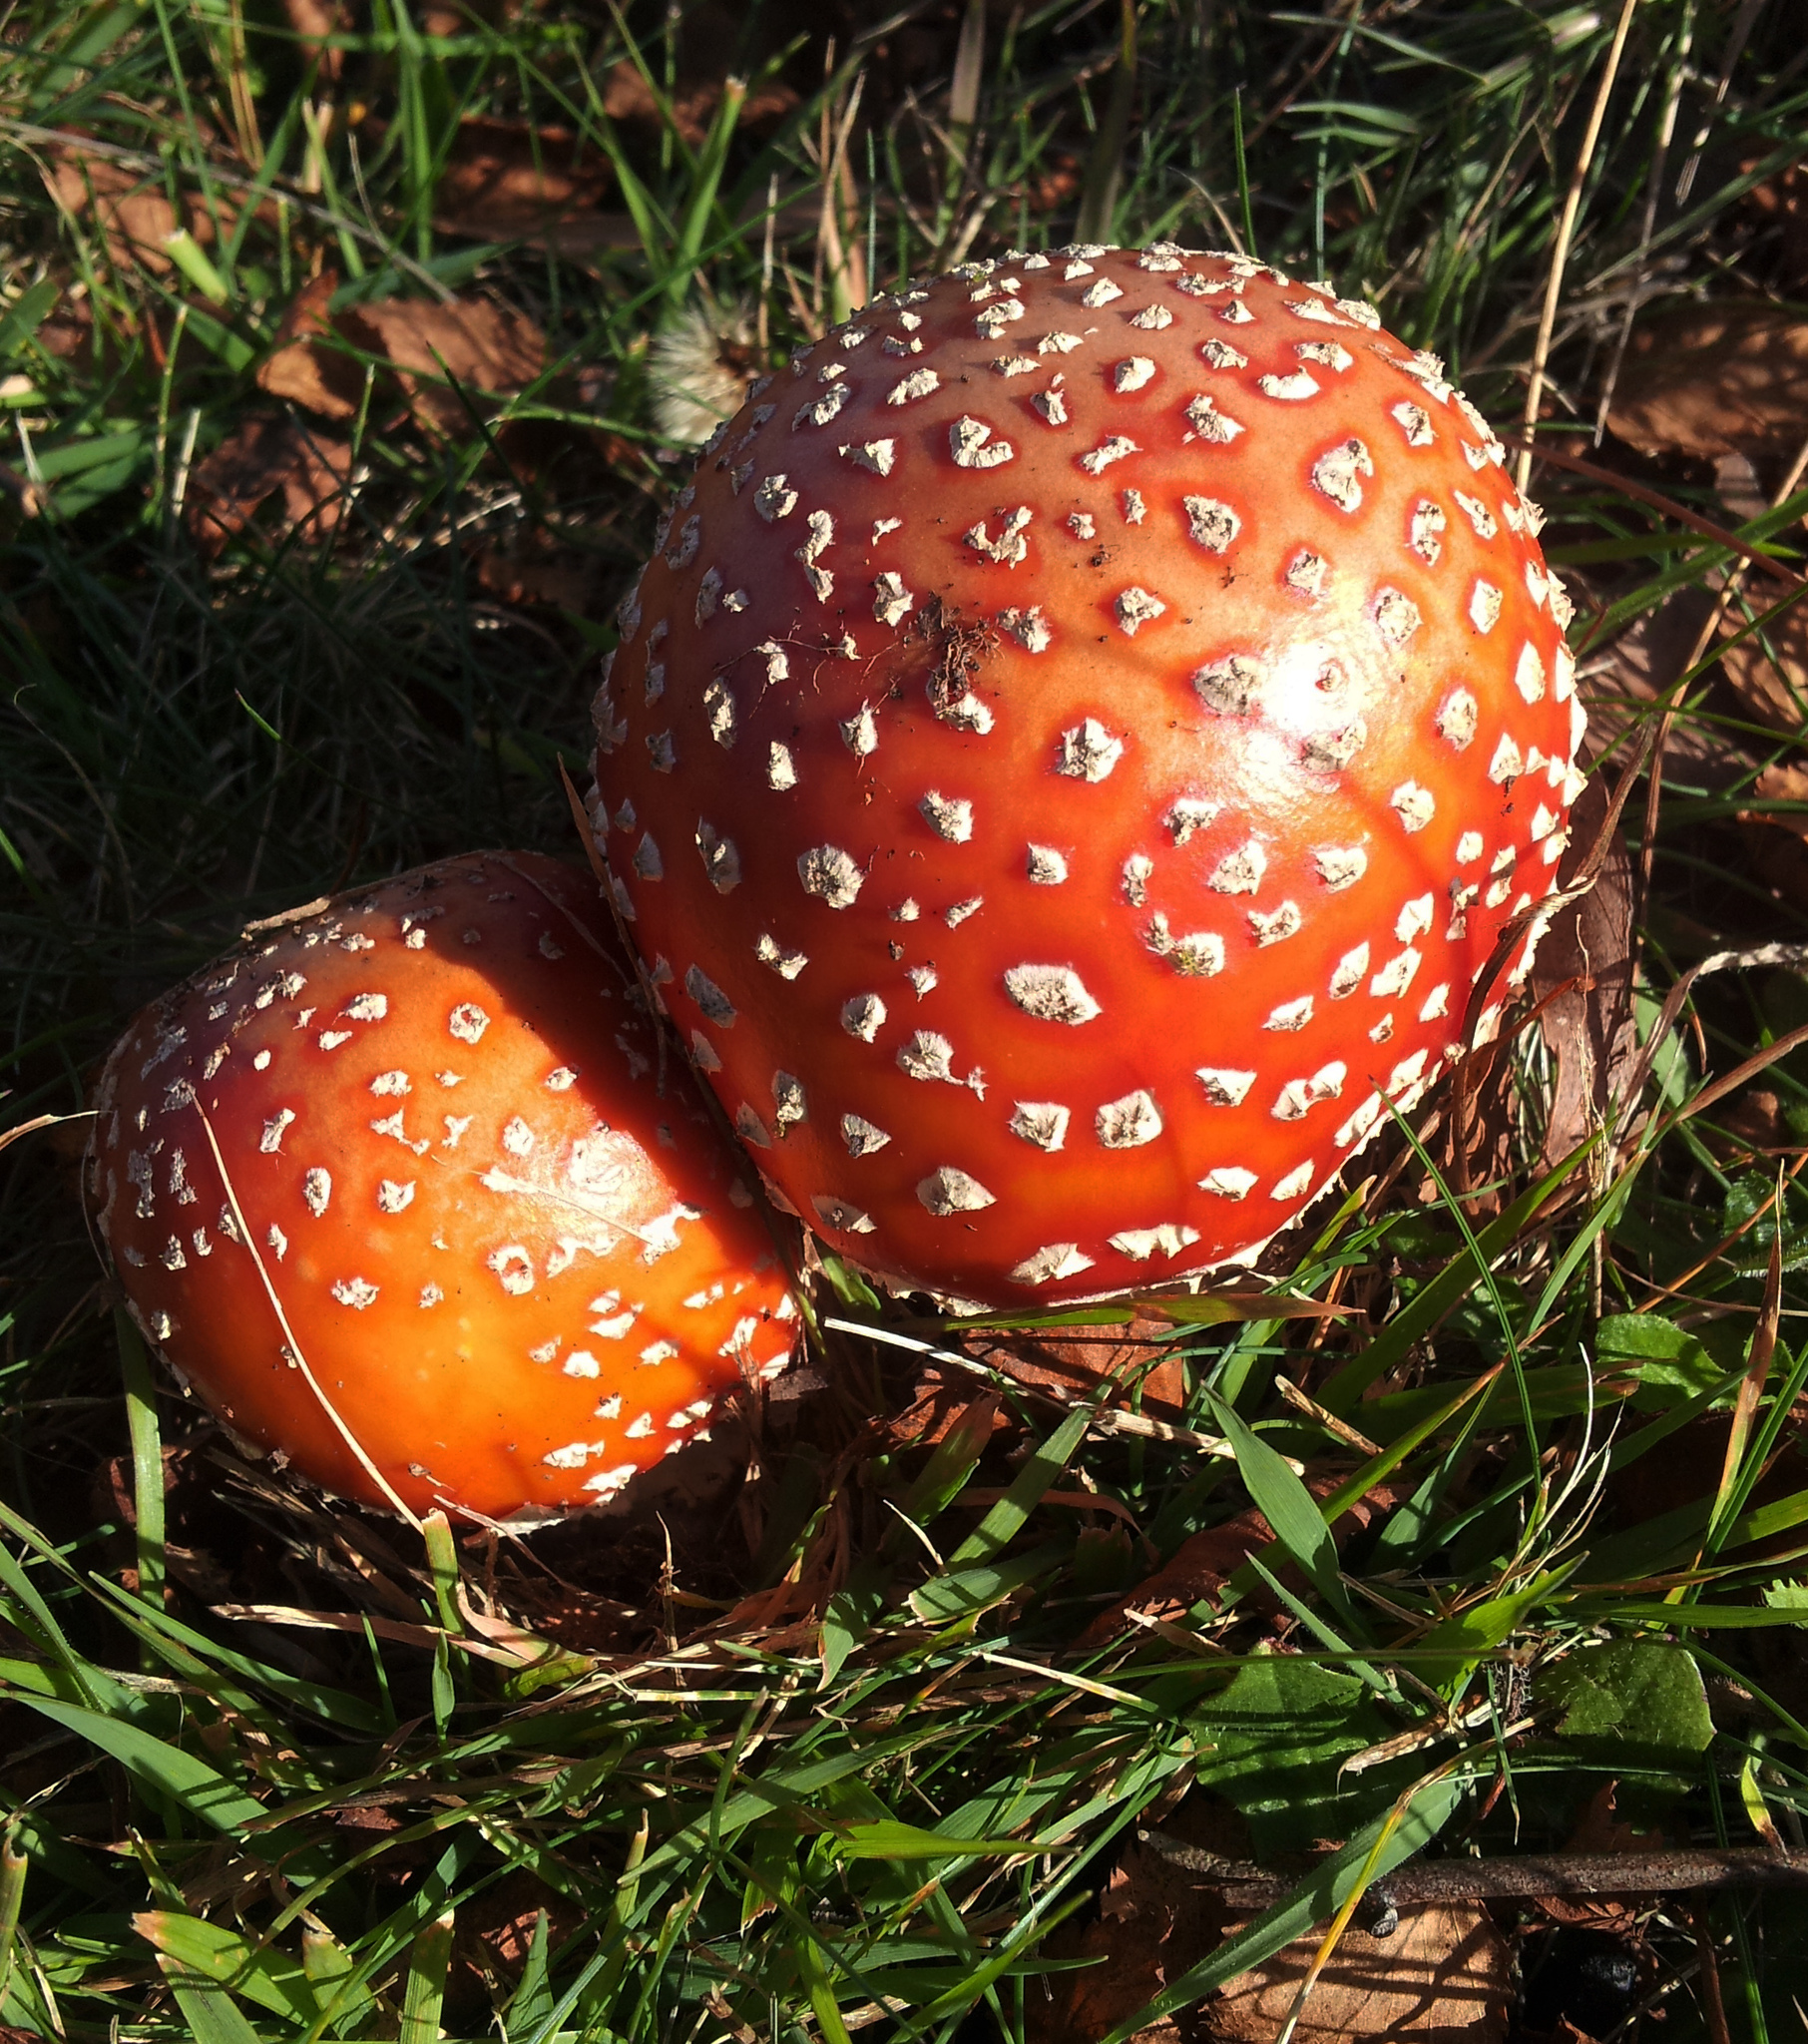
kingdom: Fungi
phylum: Basidiomycota
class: Agaricomycetes
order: Agaricales
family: Amanitaceae
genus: Amanita
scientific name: Amanita muscaria
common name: Fly agaric
